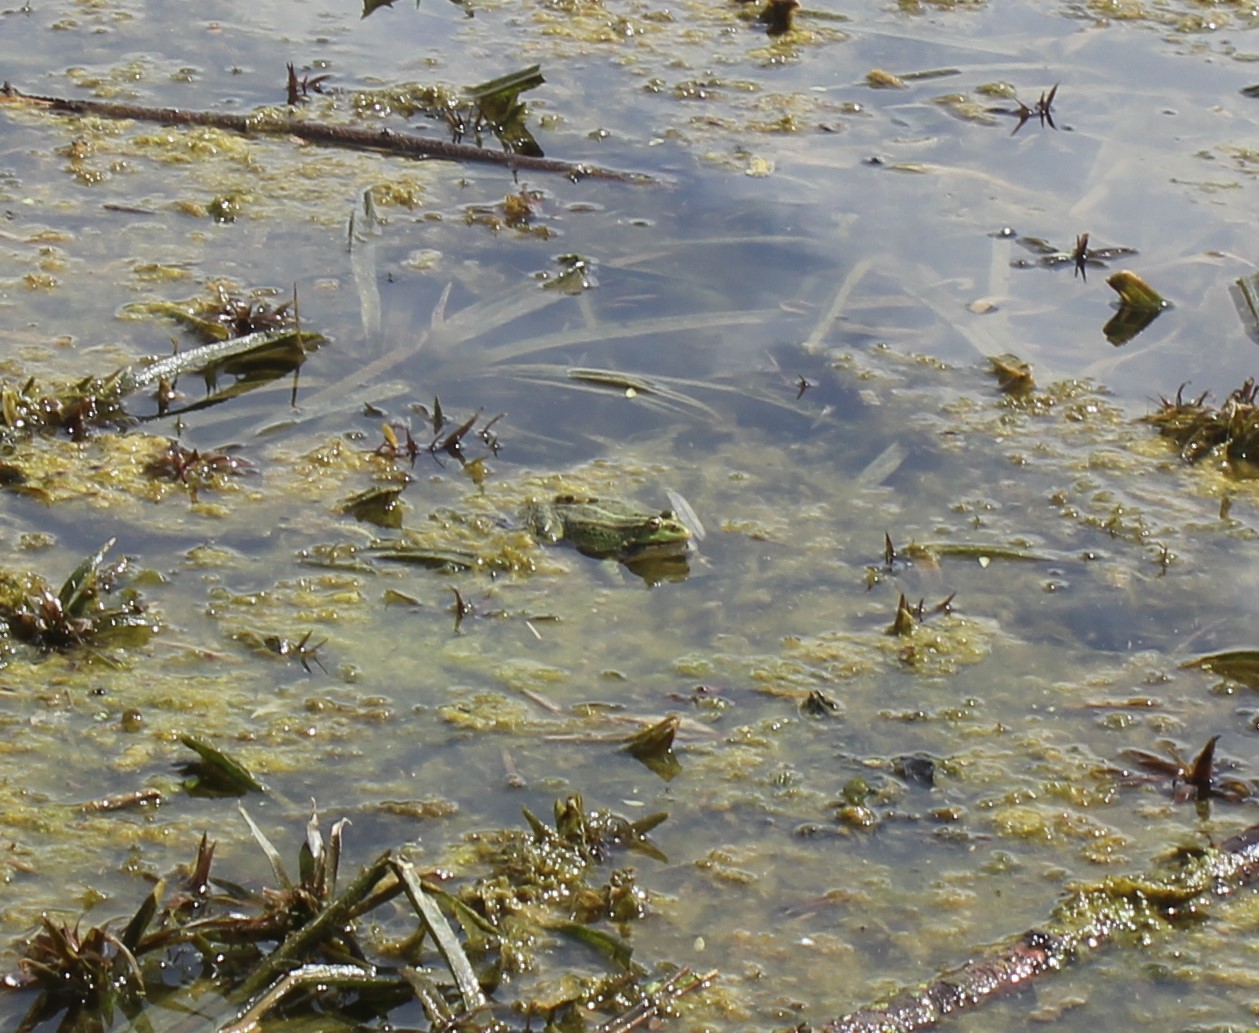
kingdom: Animalia
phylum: Chordata
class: Amphibia
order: Anura
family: Ranidae
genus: Pelophylax
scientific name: Pelophylax ridibundus
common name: Marsh frog
